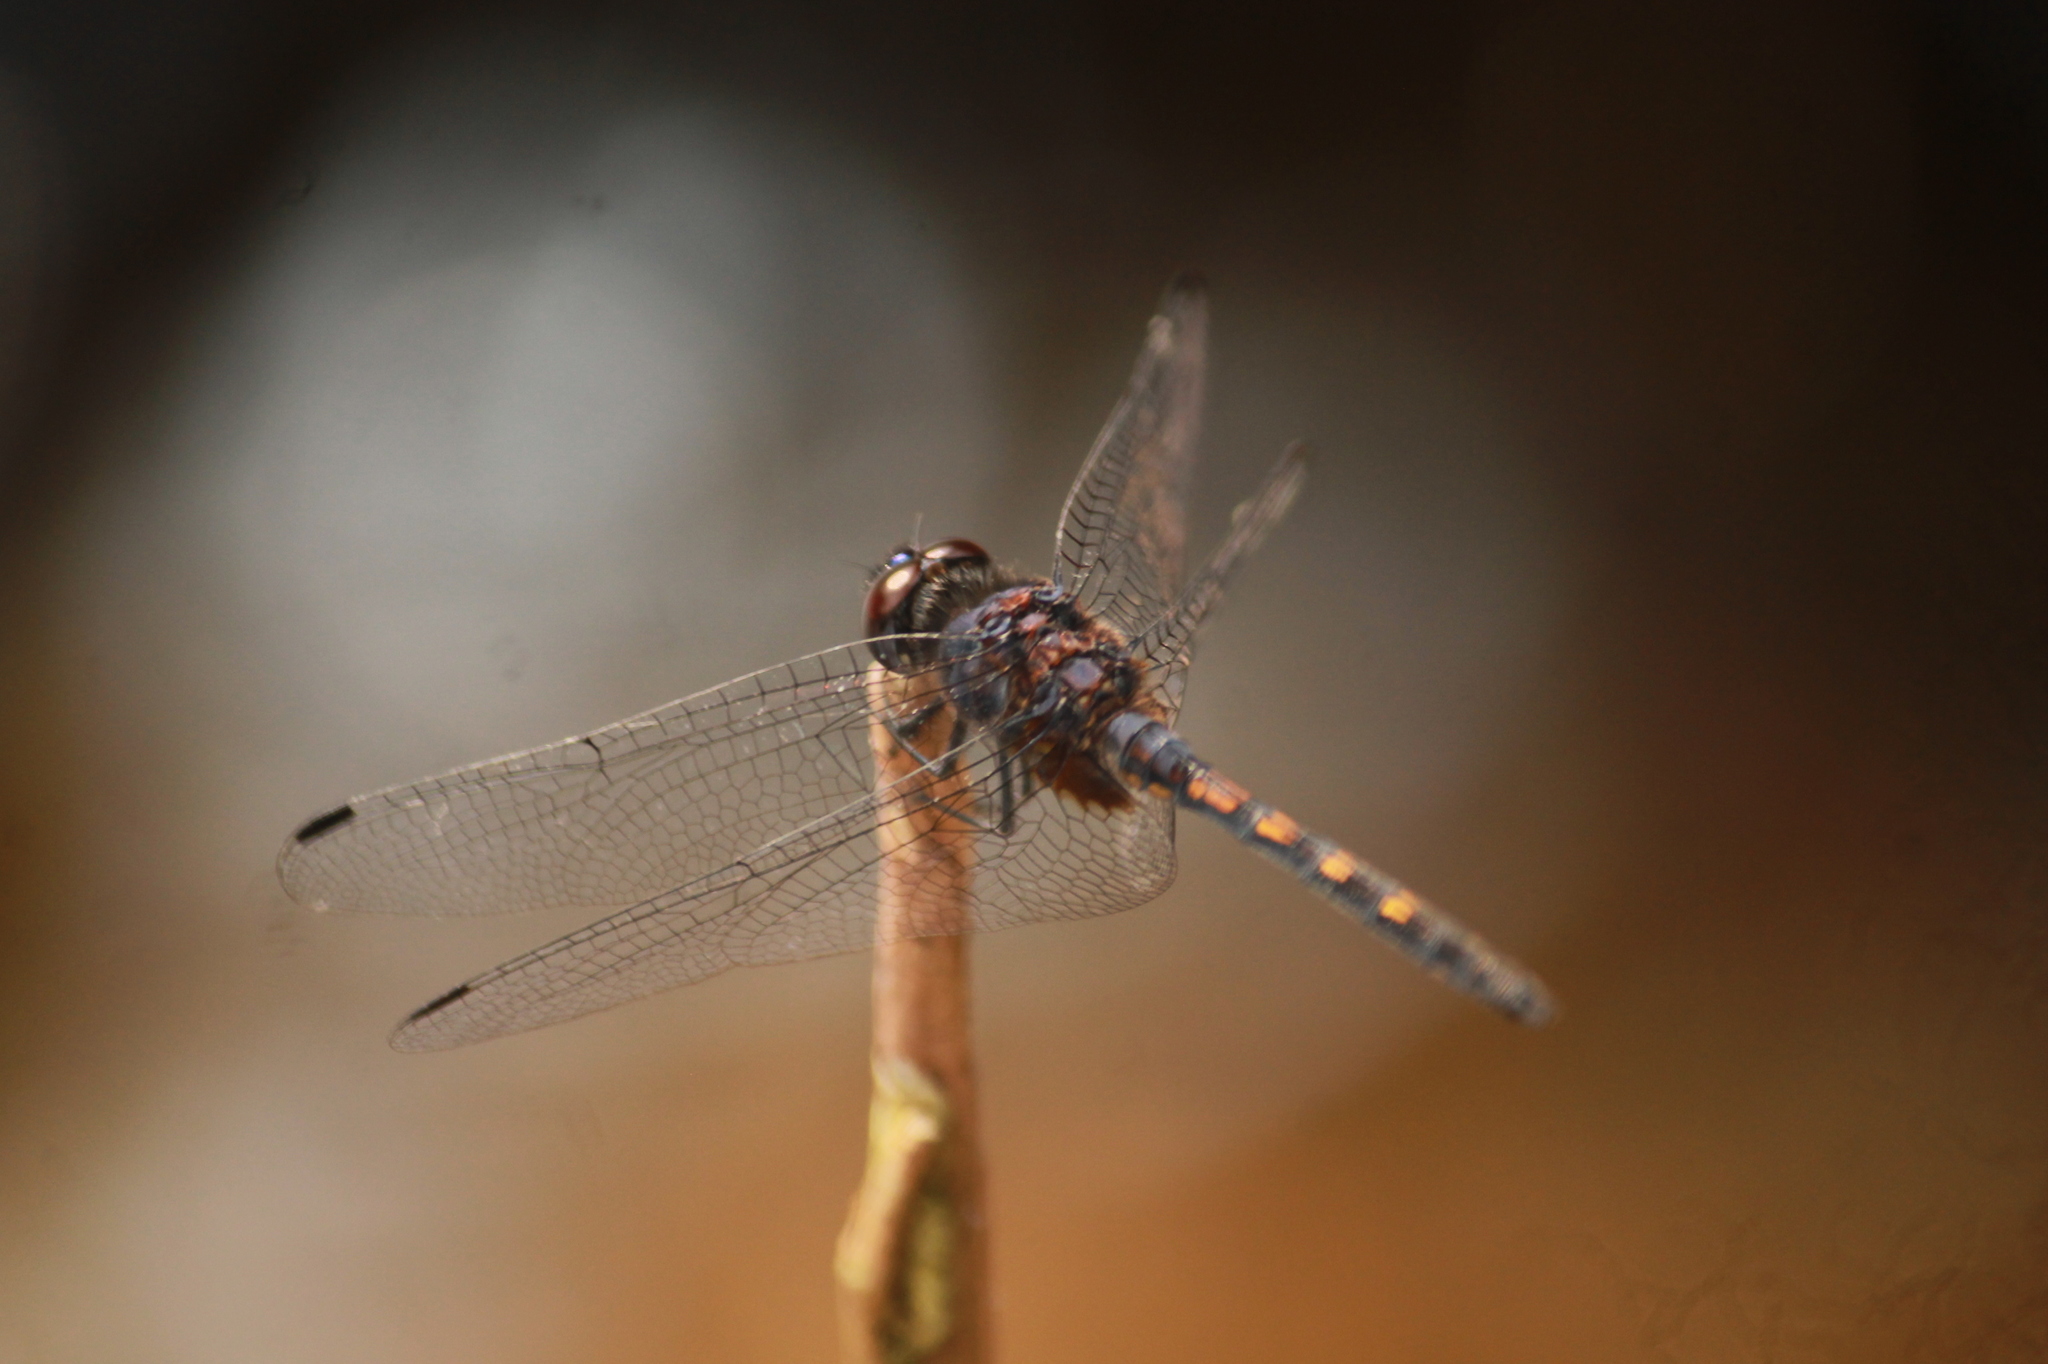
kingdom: Animalia
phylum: Arthropoda
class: Insecta
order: Odonata
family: Libellulidae
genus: Trithemis
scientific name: Trithemis festiva
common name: Indigo dropwing
